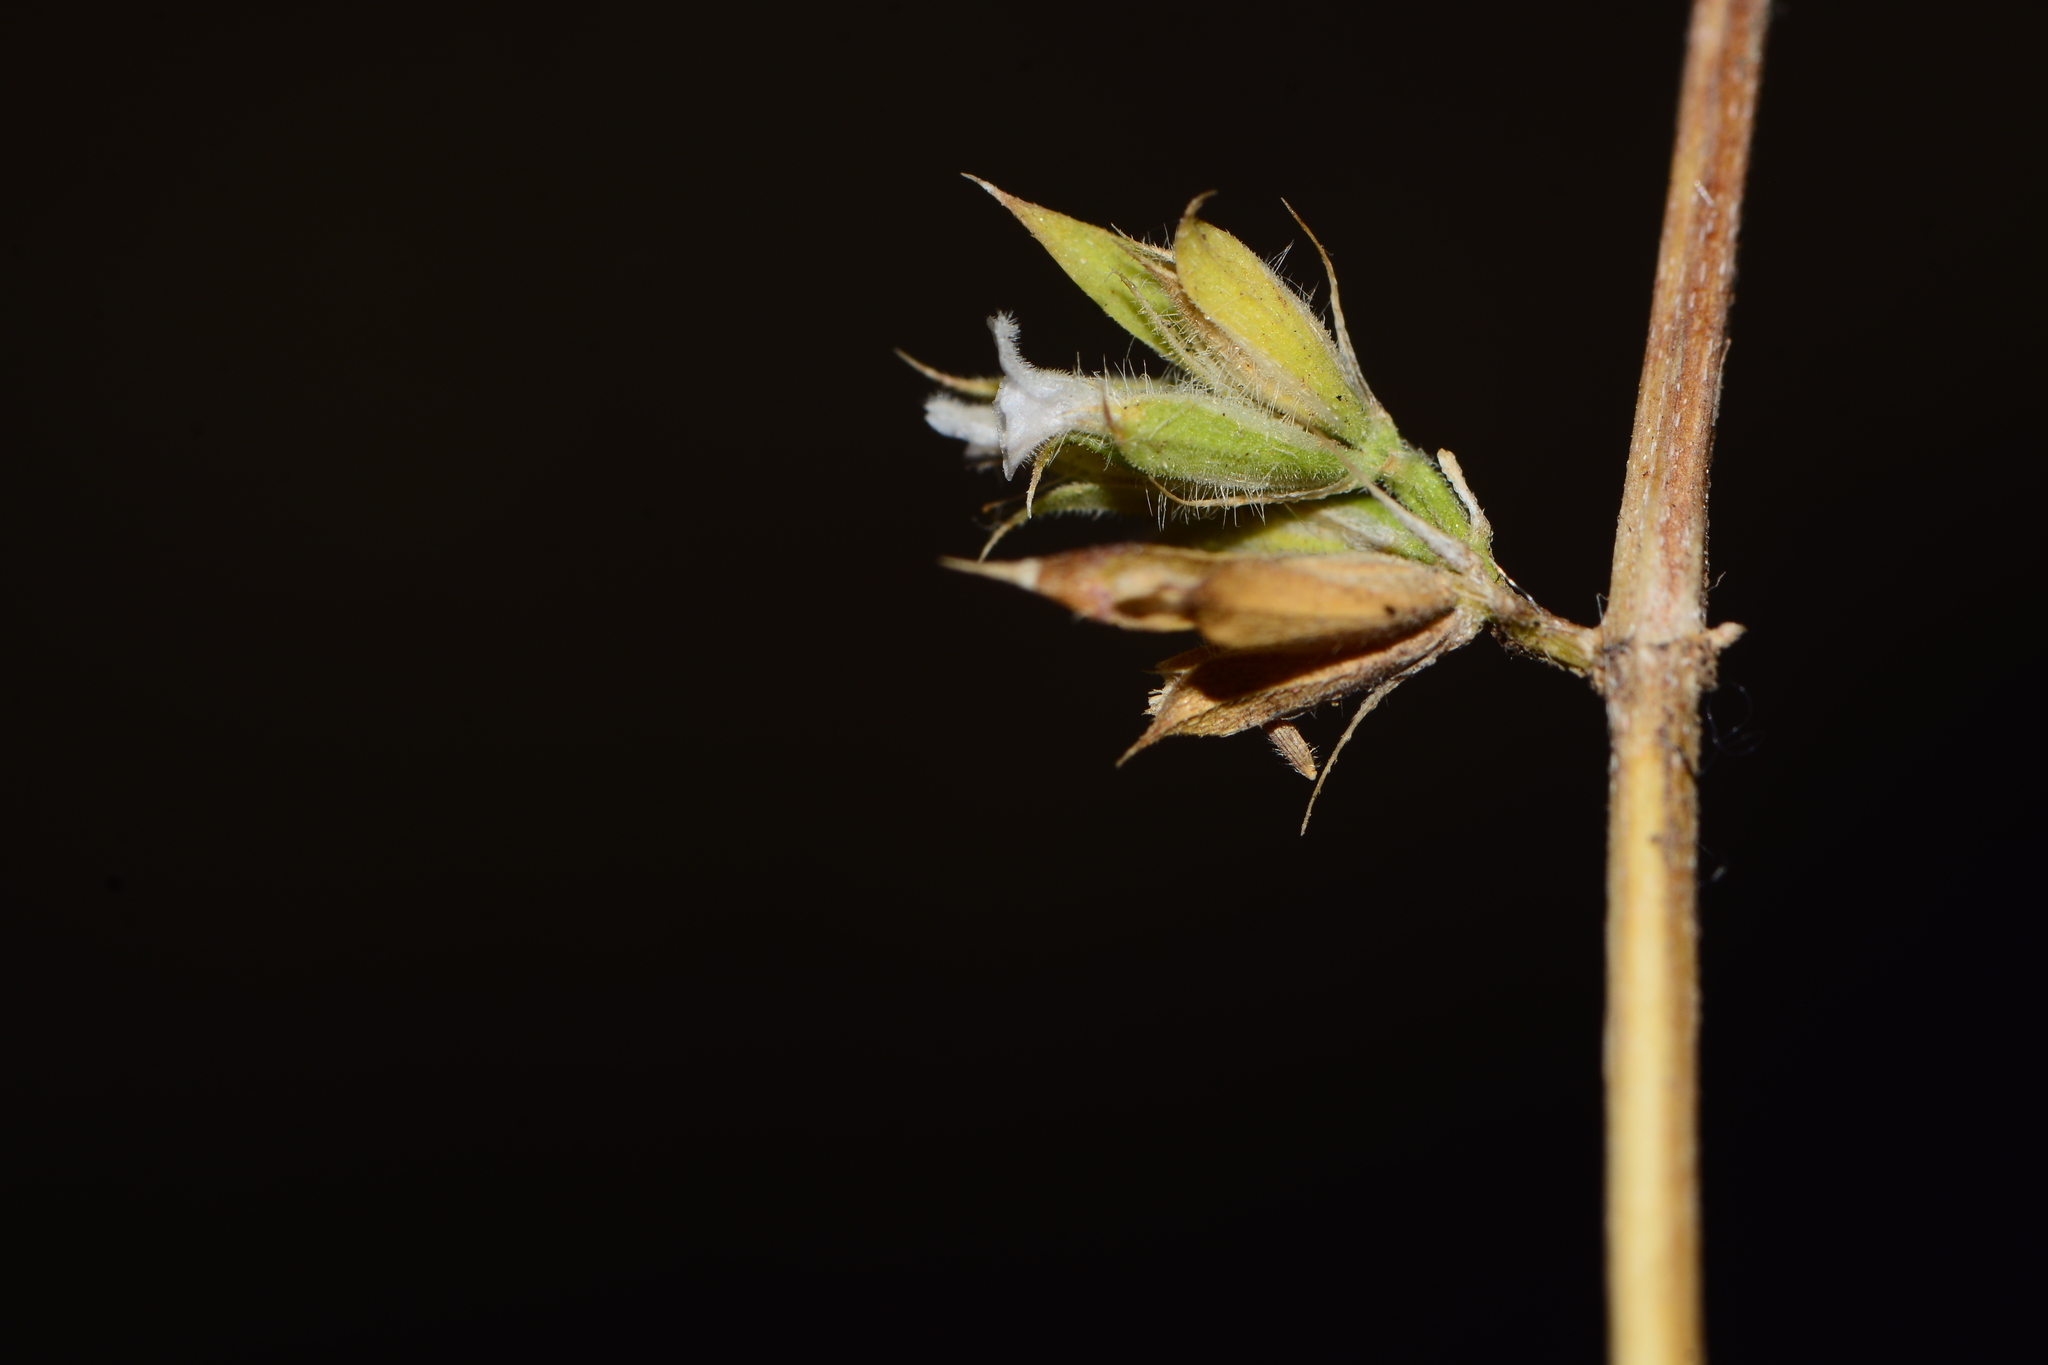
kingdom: Plantae
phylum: Tracheophyta
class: Magnoliopsida
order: Lamiales
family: Acanthaceae
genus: Dicliptera
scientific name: Dicliptera verticillata
